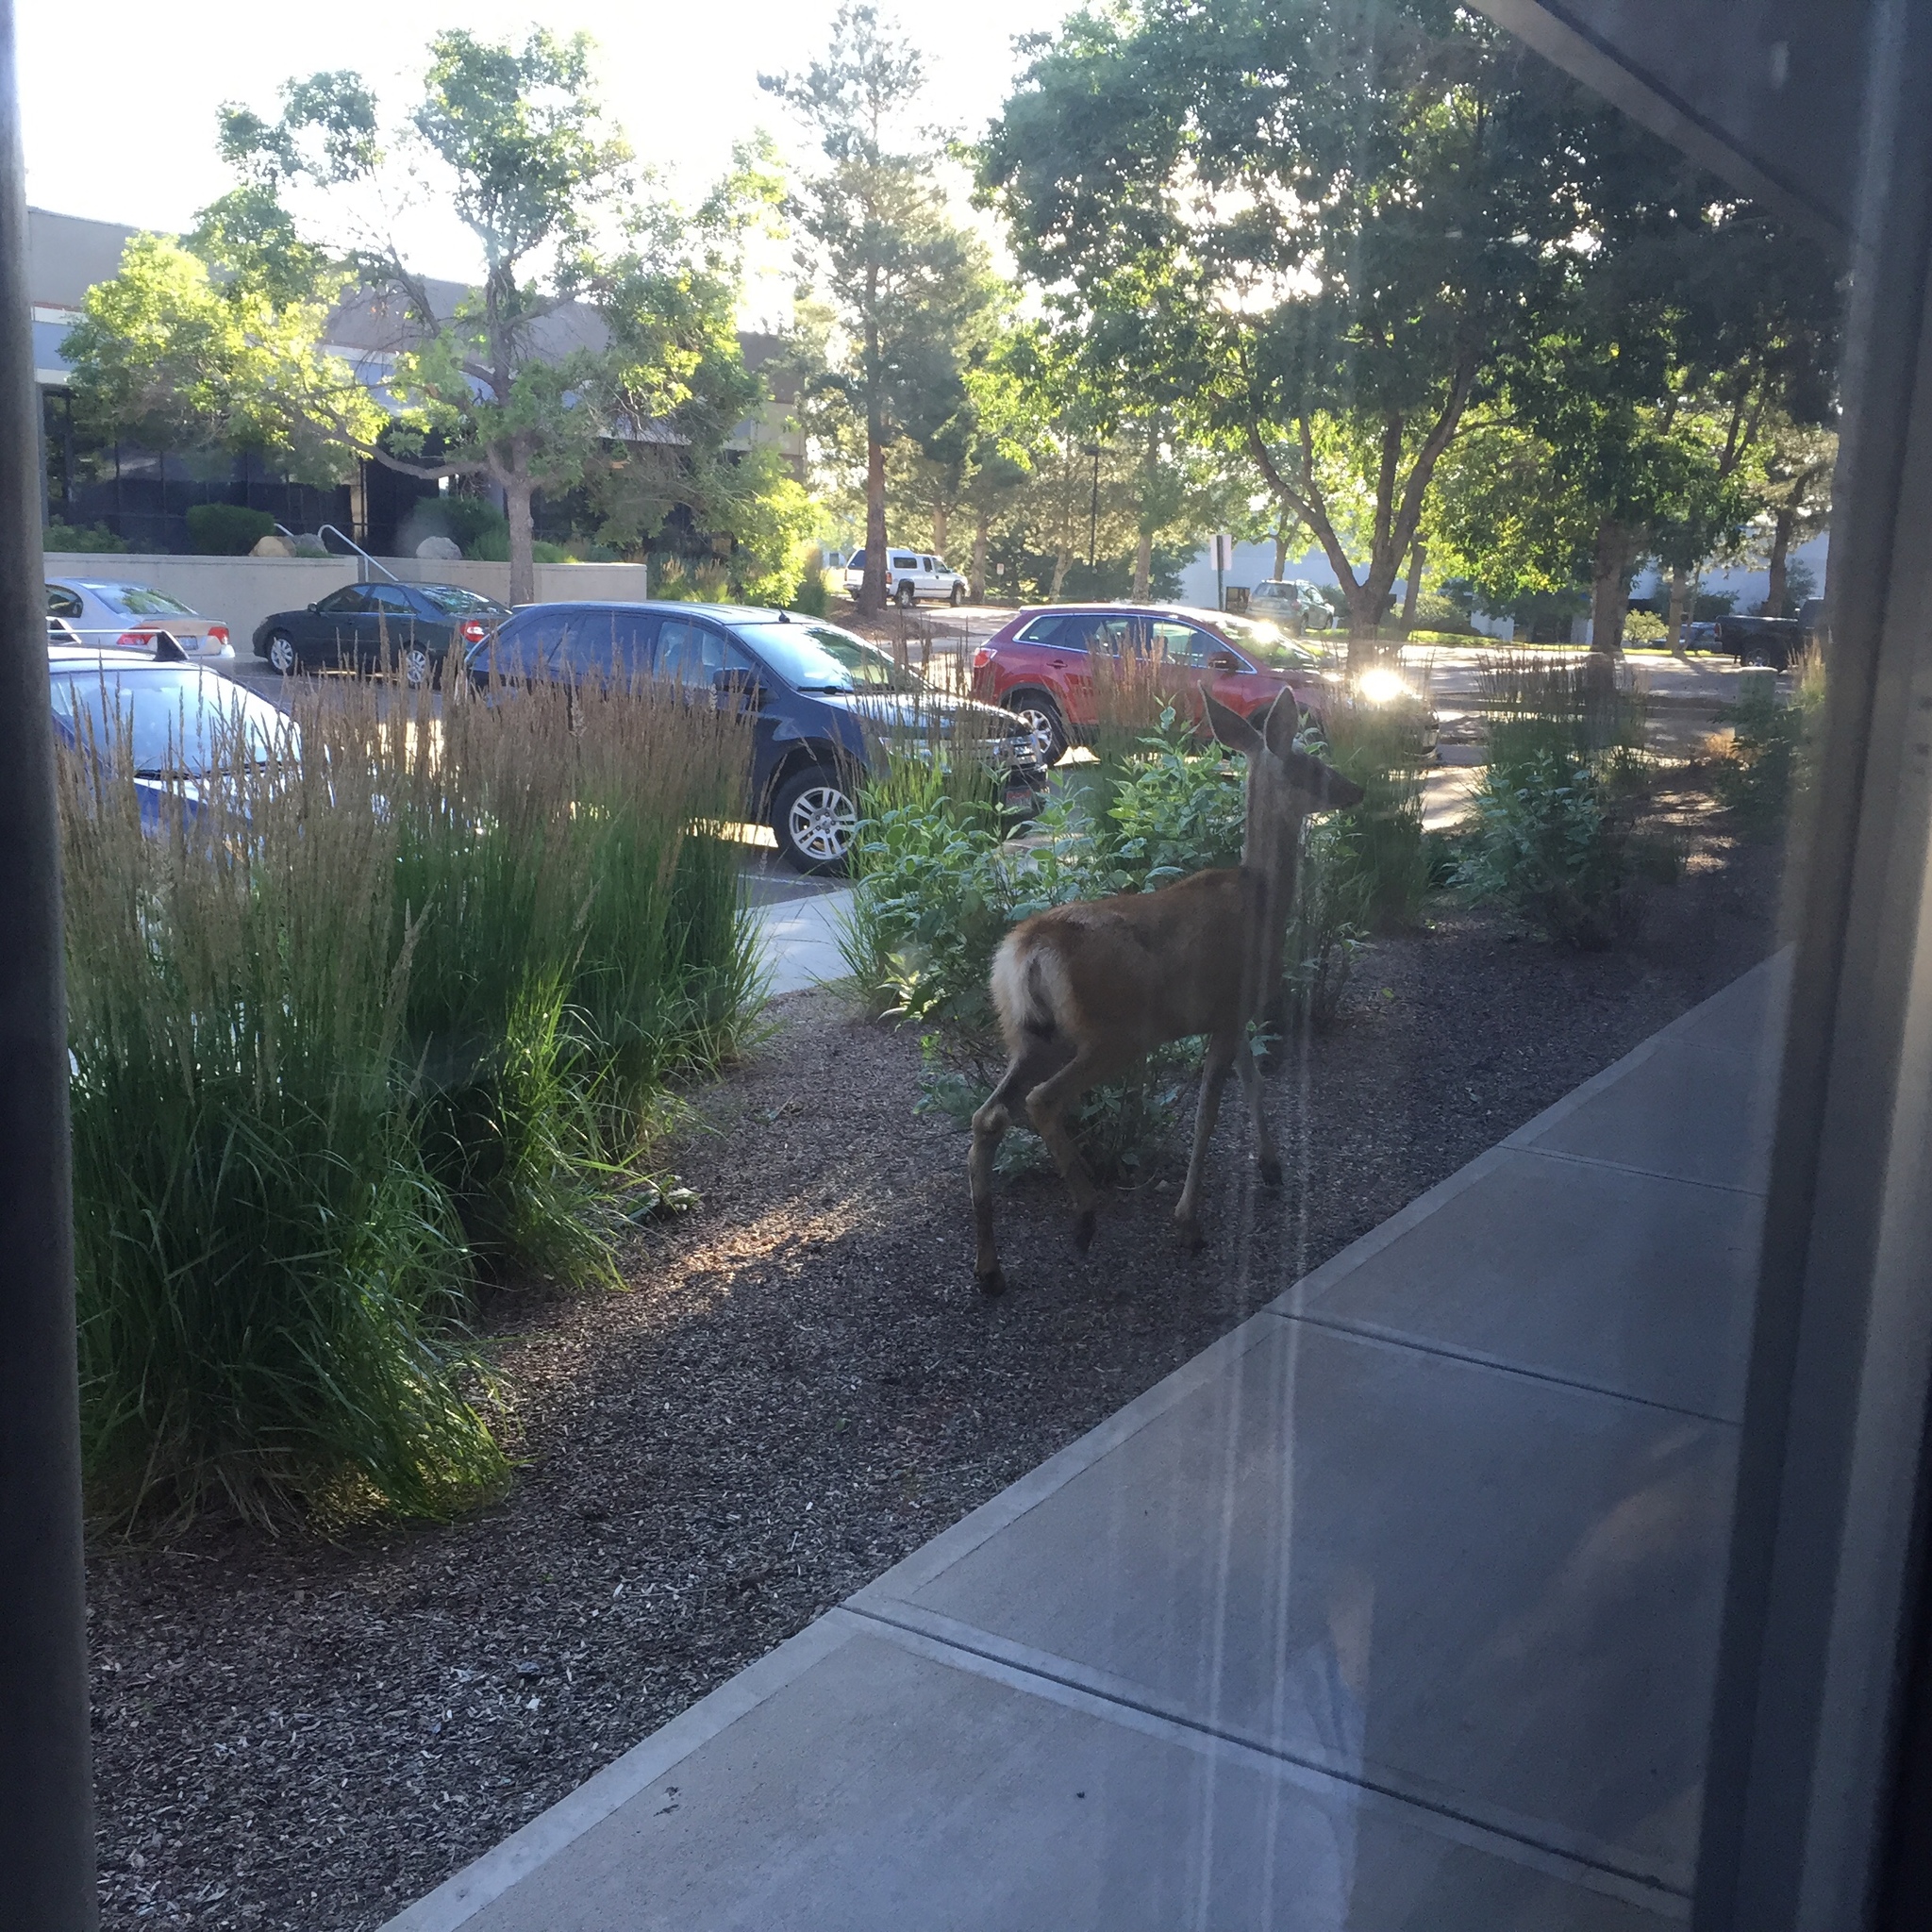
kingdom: Animalia
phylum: Chordata
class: Mammalia
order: Artiodactyla
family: Cervidae
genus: Odocoileus
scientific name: Odocoileus hemionus
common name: Mule deer
